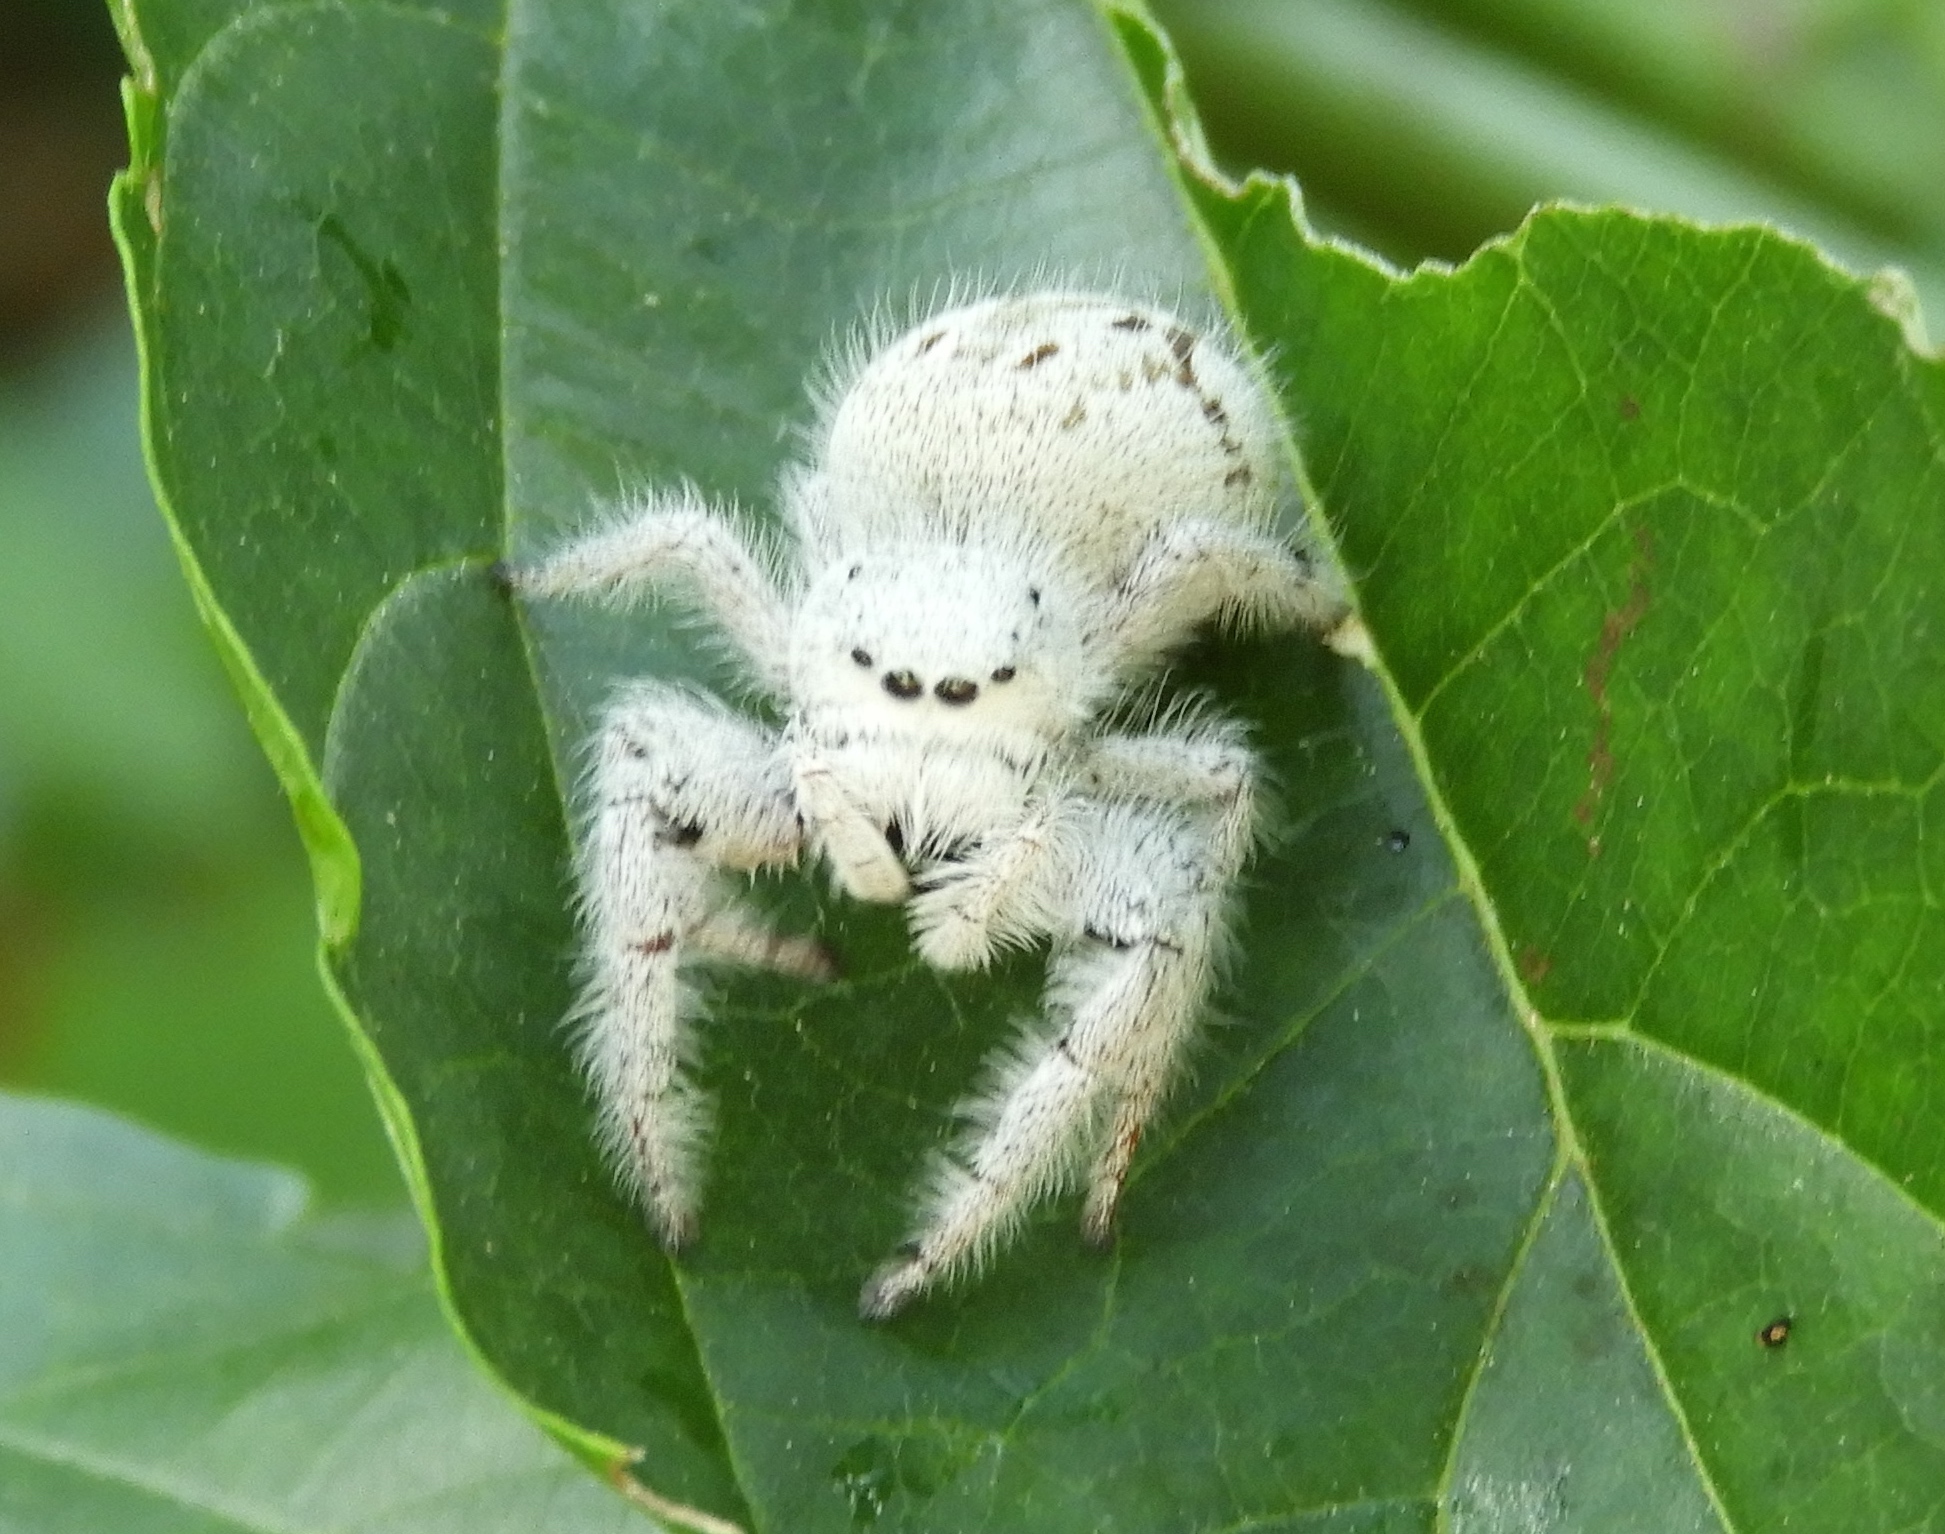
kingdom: Animalia
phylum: Arthropoda
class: Arachnida
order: Araneae
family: Salticidae
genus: Paraphidippus
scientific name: Paraphidippus fartilis
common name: Jumping spiders
